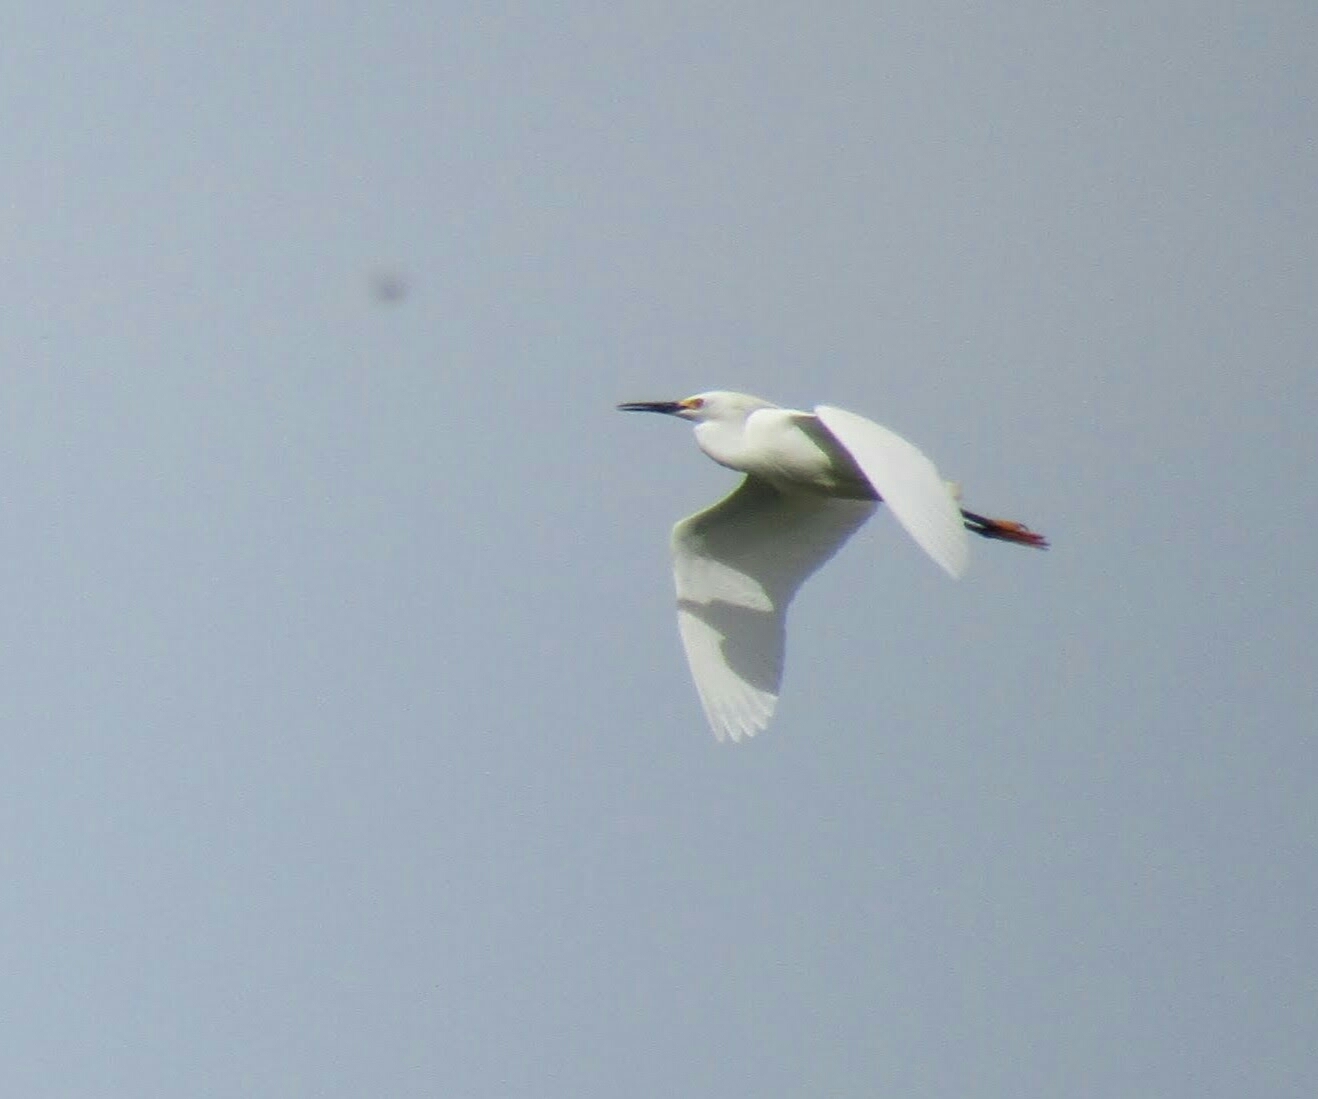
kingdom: Animalia
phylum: Chordata
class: Aves
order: Pelecaniformes
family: Ardeidae
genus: Egretta
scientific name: Egretta thula
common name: Snowy egret
